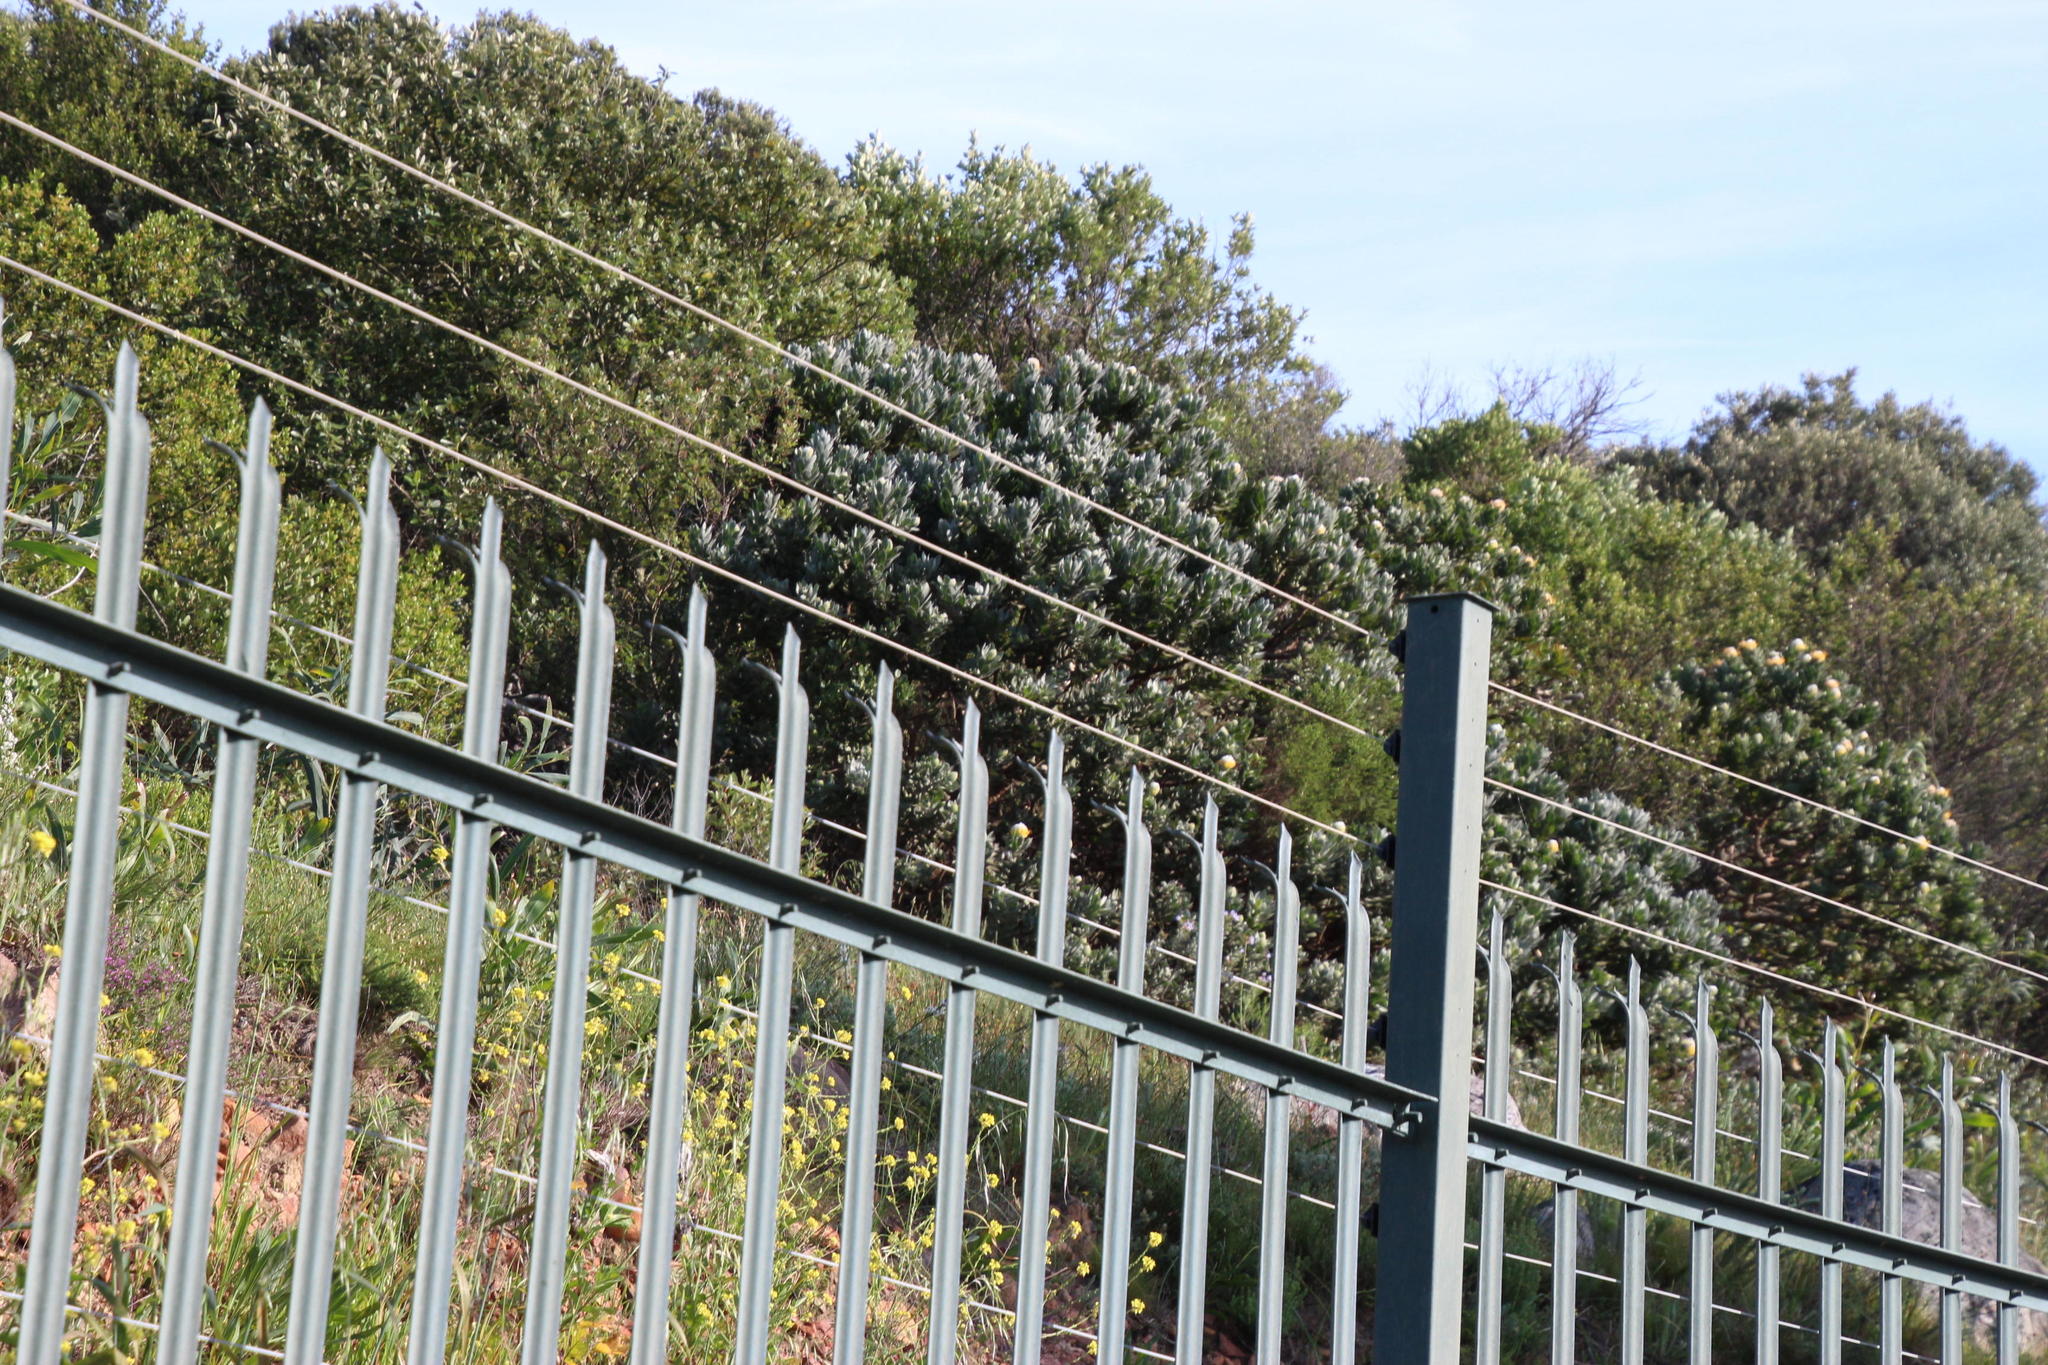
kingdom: Plantae
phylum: Tracheophyta
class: Magnoliopsida
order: Proteales
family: Proteaceae
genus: Leucospermum
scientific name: Leucospermum conocarpodendron
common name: Tree pincushion
